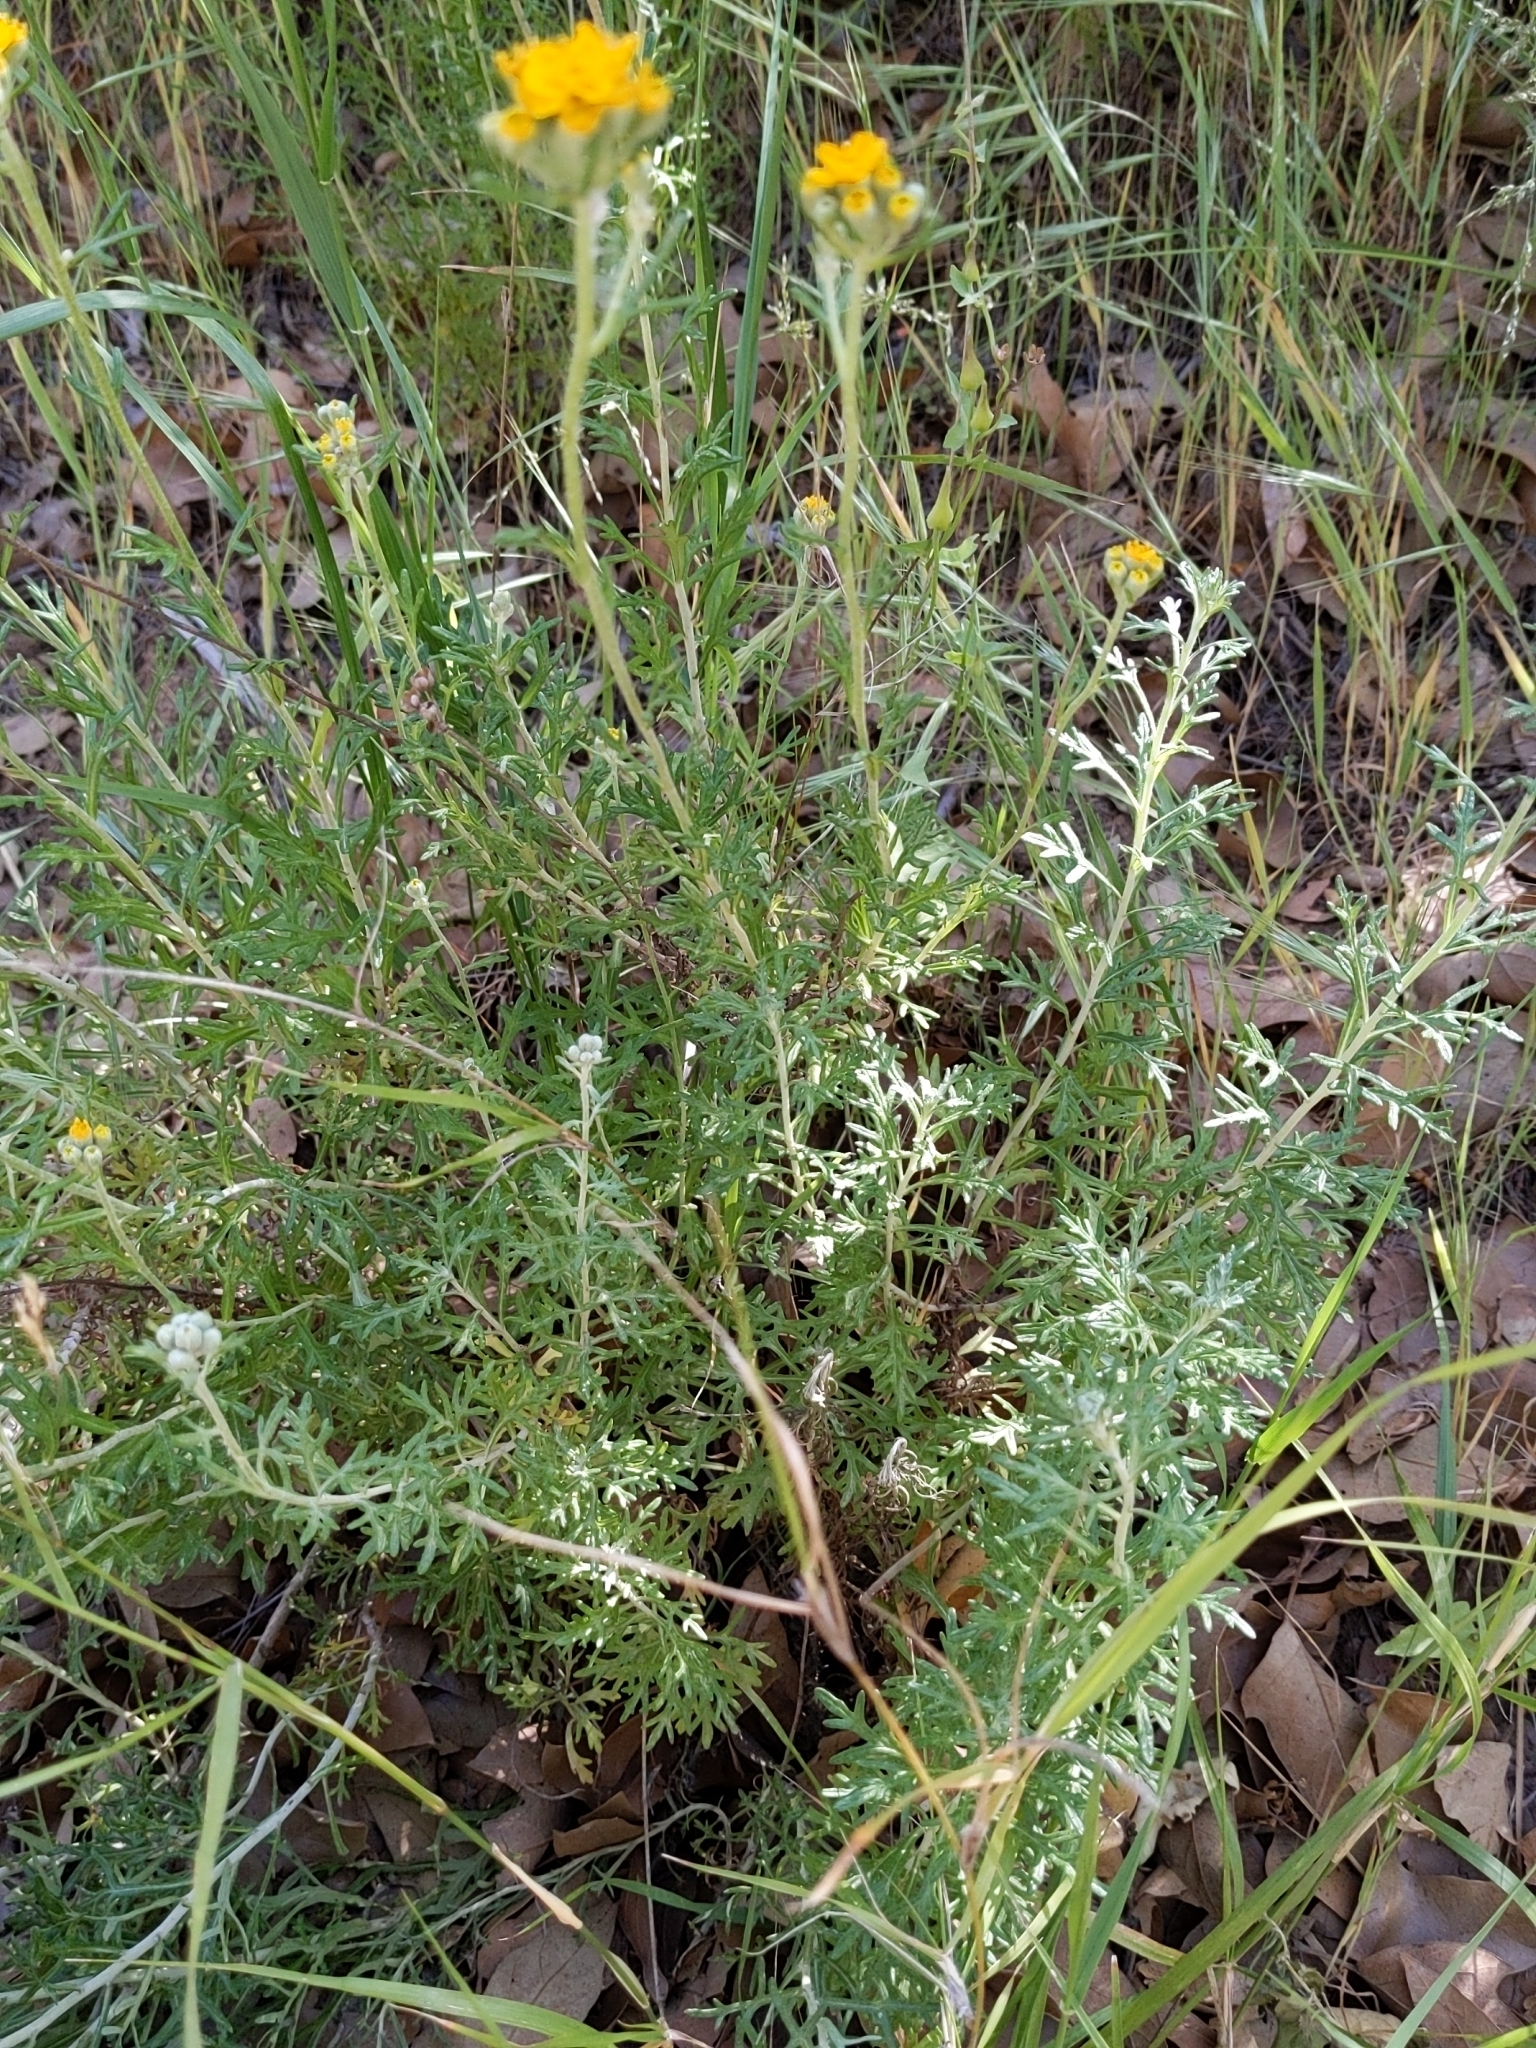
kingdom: Plantae
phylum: Tracheophyta
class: Magnoliopsida
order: Asterales
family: Asteraceae
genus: Eriophyllum
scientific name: Eriophyllum confertiflorum
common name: Golden-yarrow
